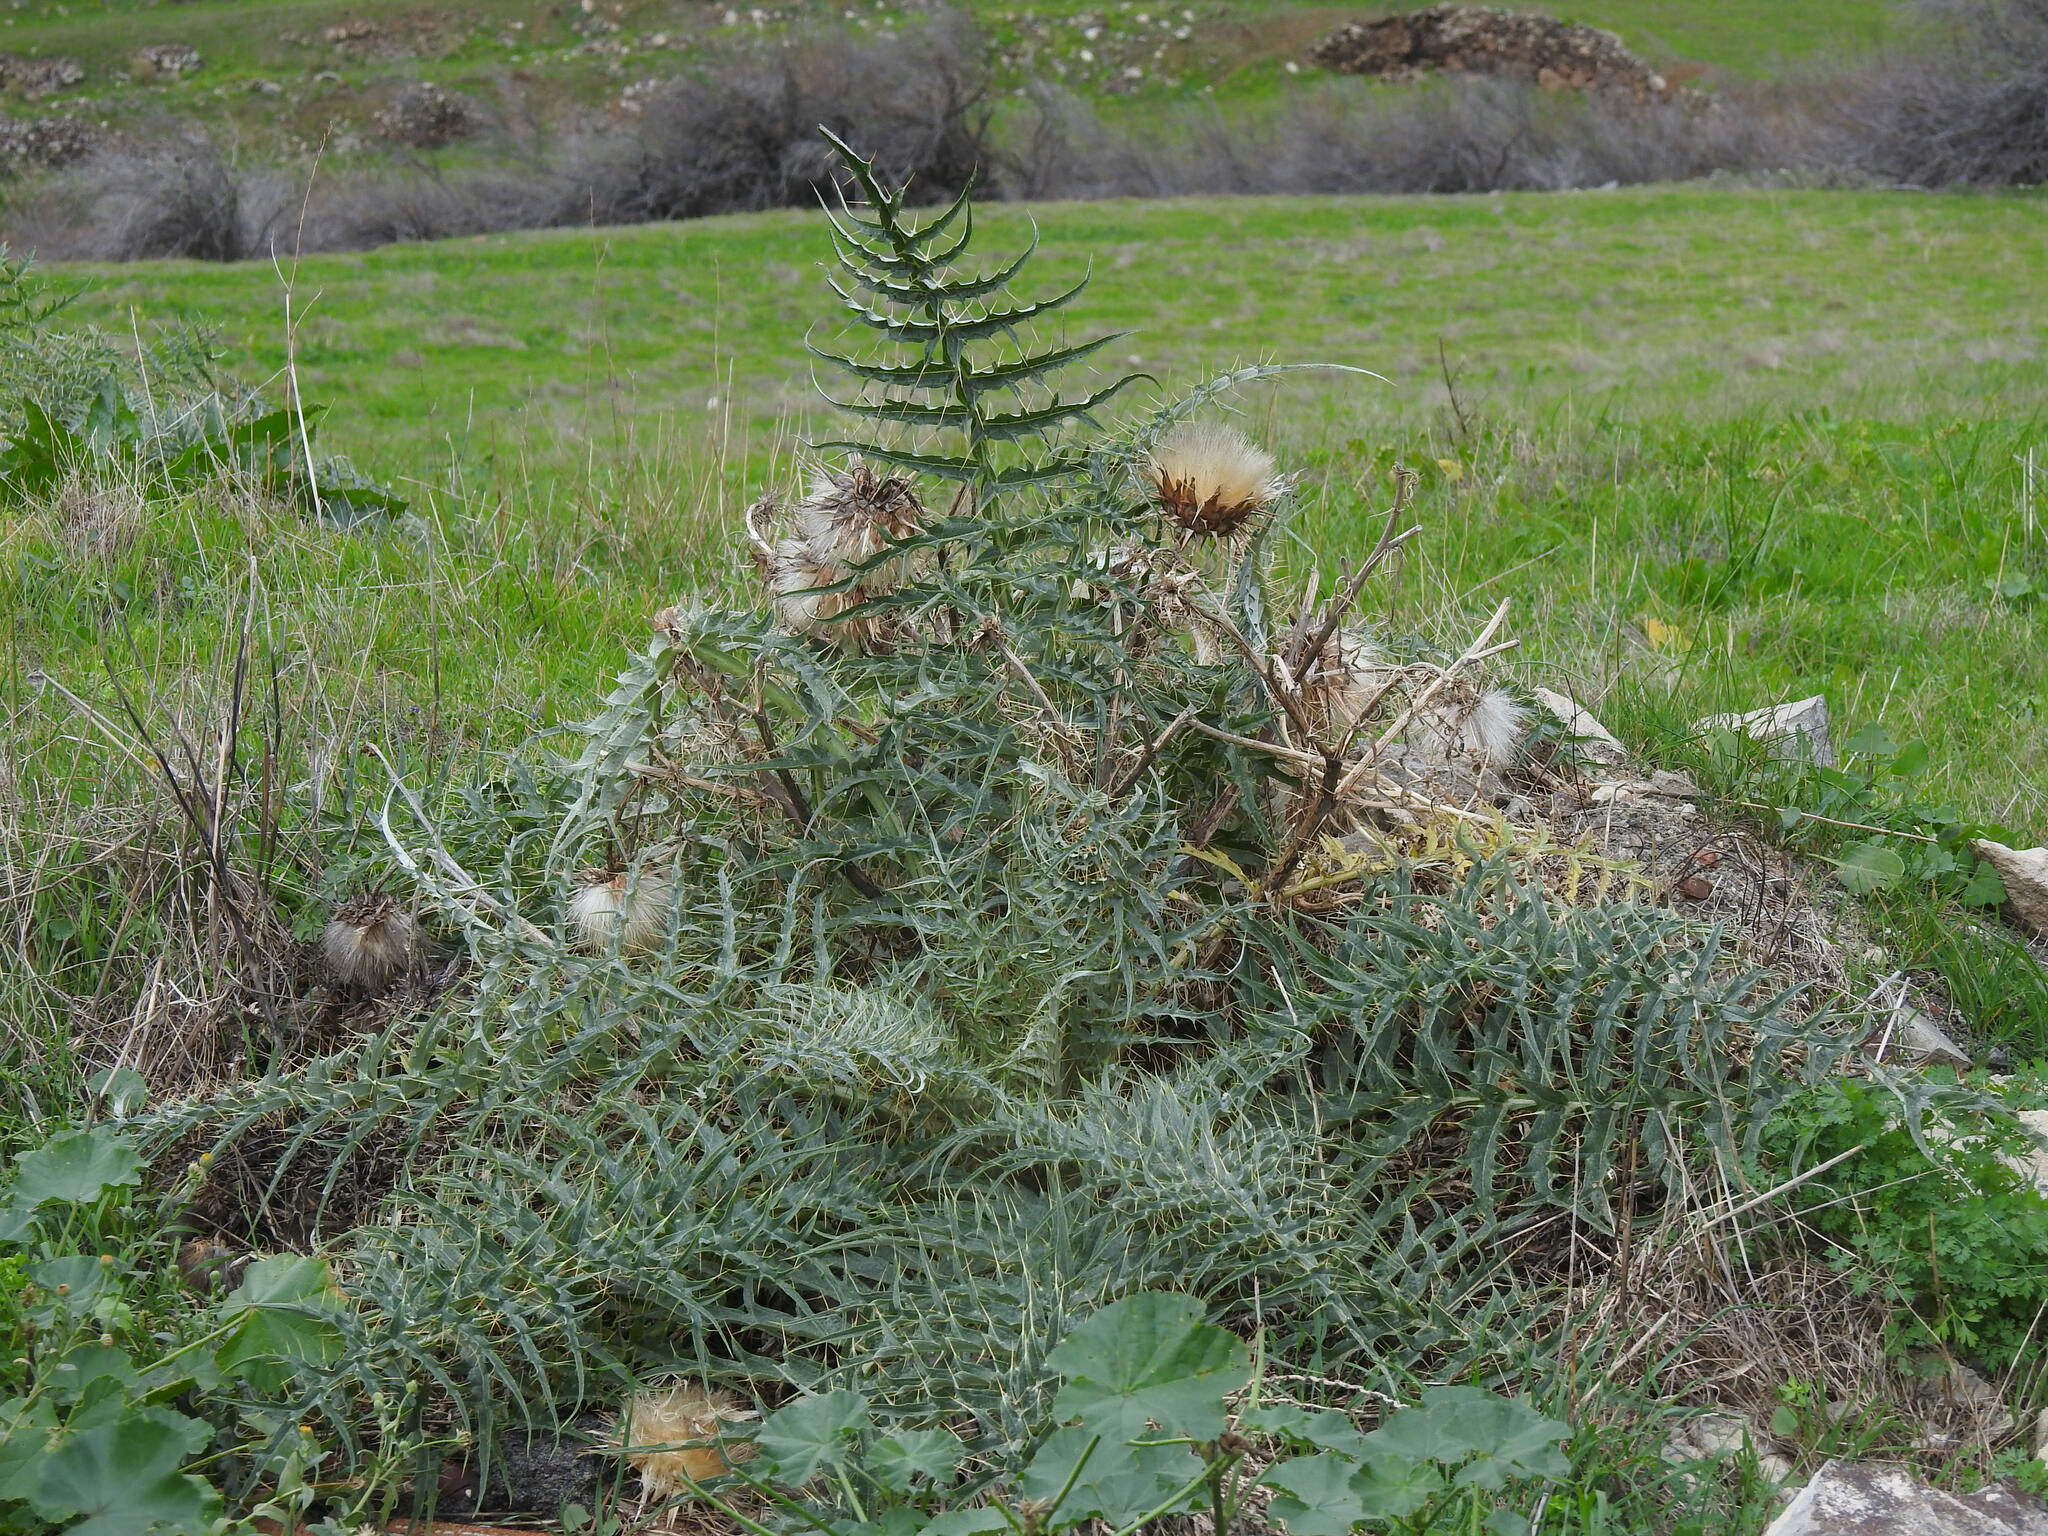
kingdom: Plantae
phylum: Tracheophyta
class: Magnoliopsida
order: Asterales
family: Asteraceae
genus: Cynara
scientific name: Cynara cardunculus
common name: Globe artichoke
